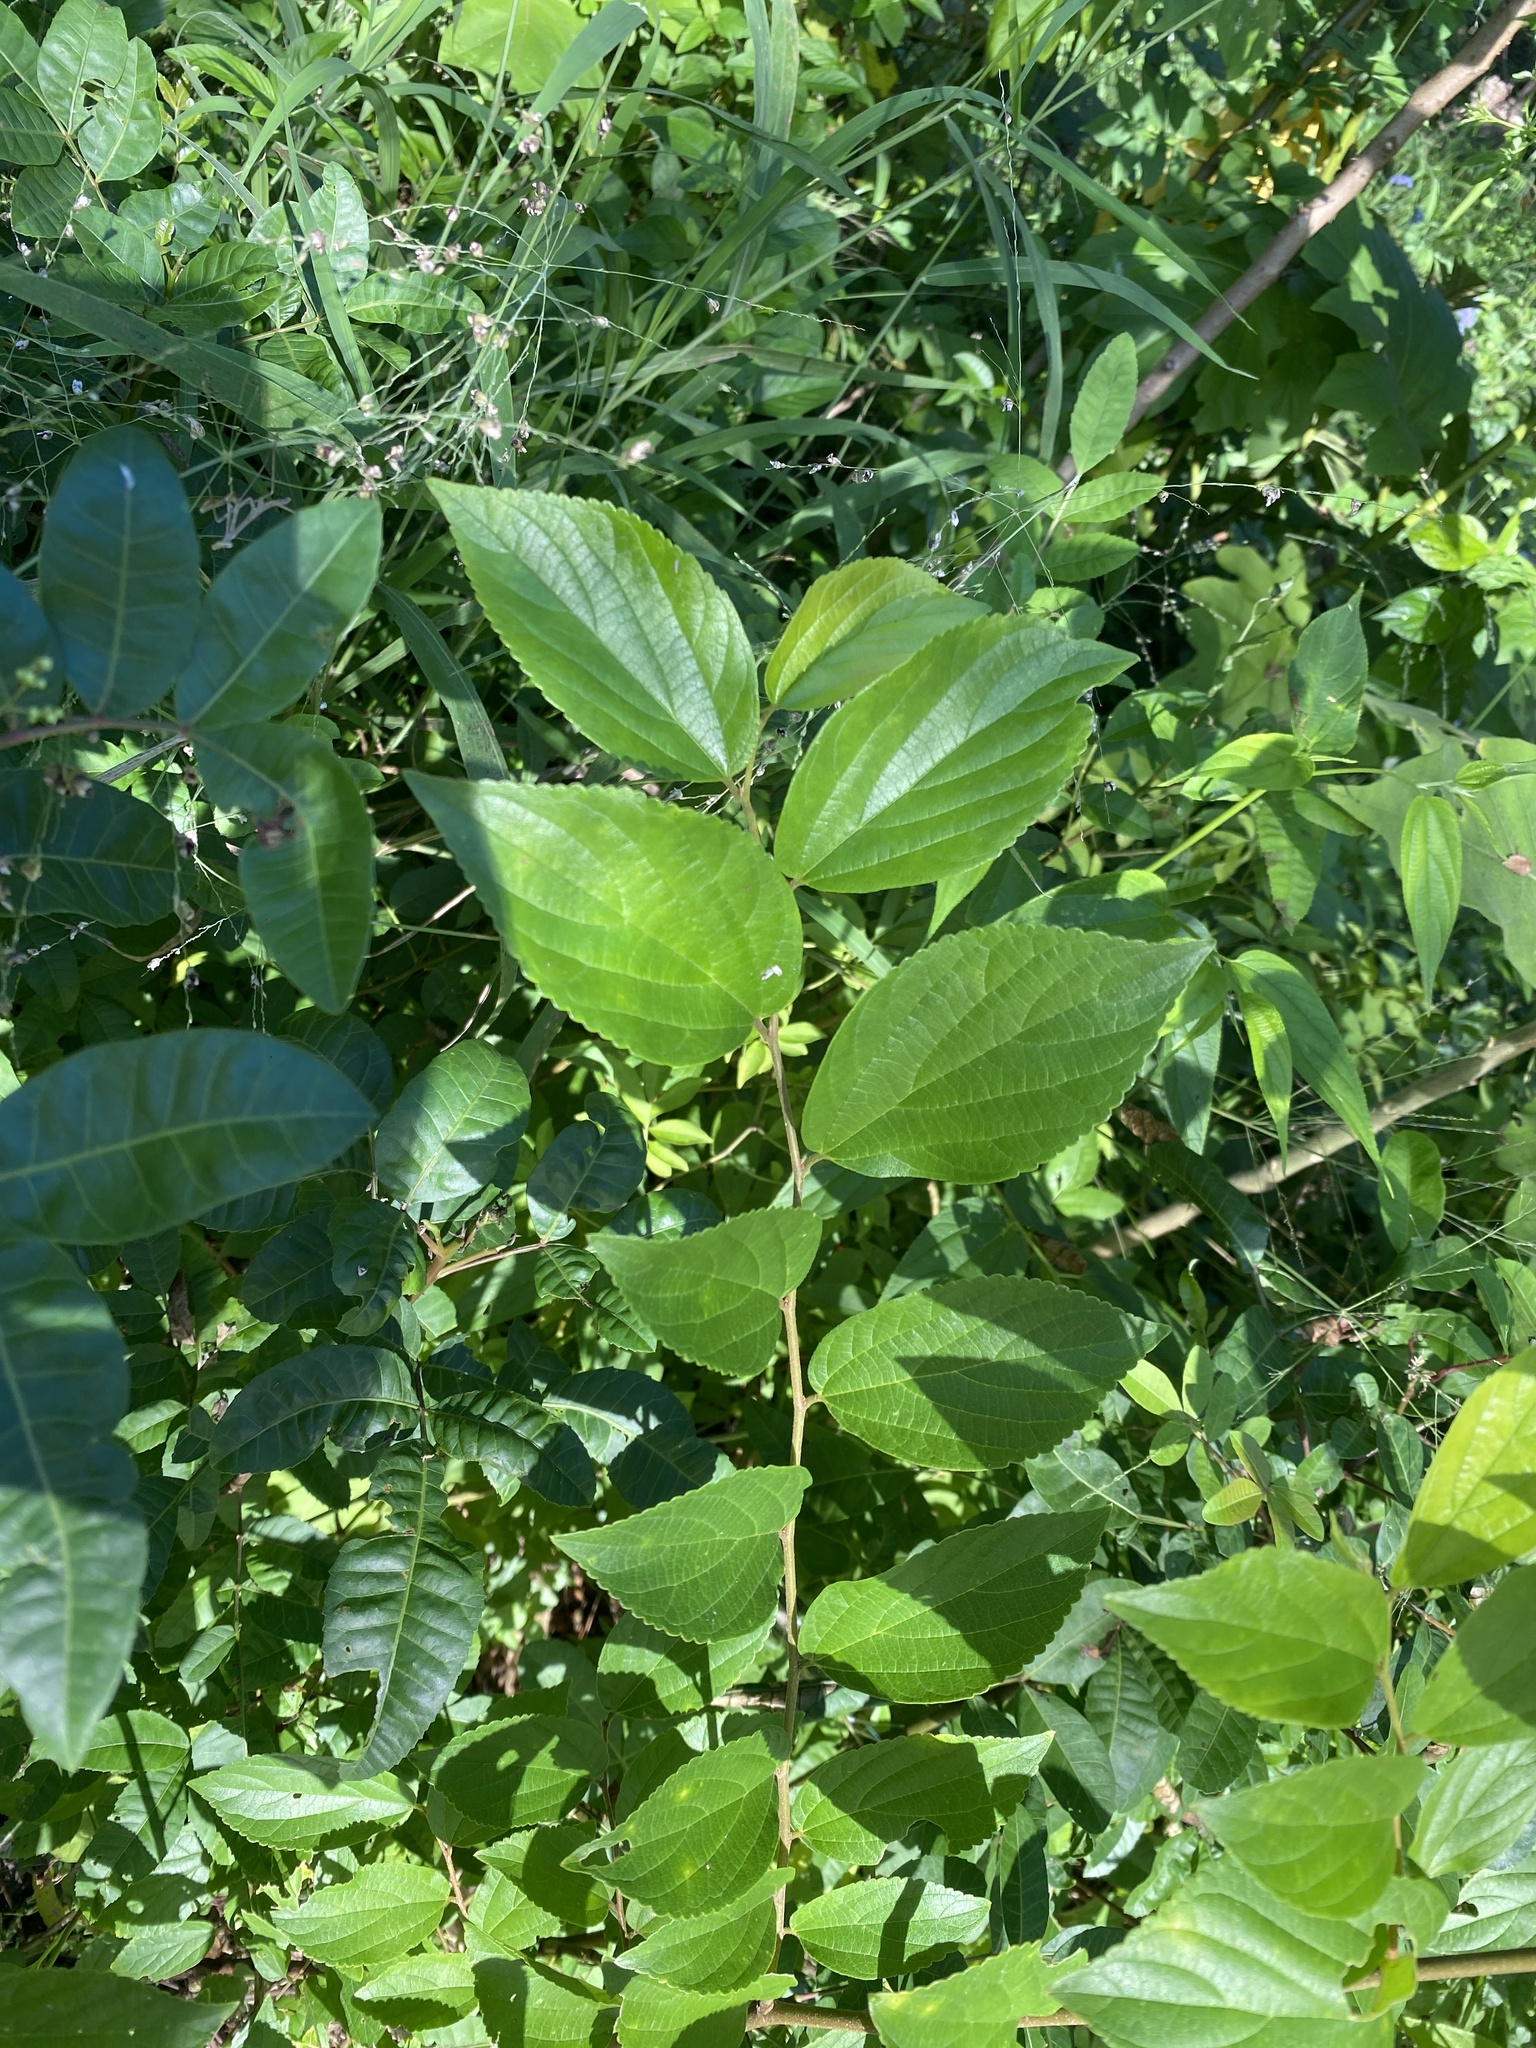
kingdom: Plantae
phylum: Tracheophyta
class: Magnoliopsida
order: Rosales
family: Cannabaceae
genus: Celtis
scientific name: Celtis sinensis
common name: Chinese hackberry
